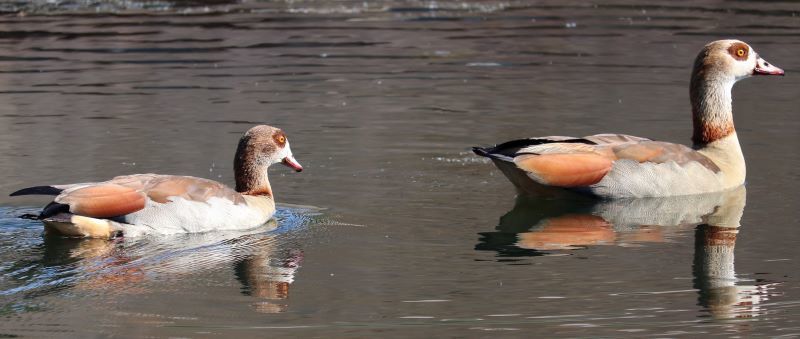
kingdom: Animalia
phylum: Chordata
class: Aves
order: Anseriformes
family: Anatidae
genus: Alopochen
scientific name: Alopochen aegyptiaca
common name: Egyptian goose
